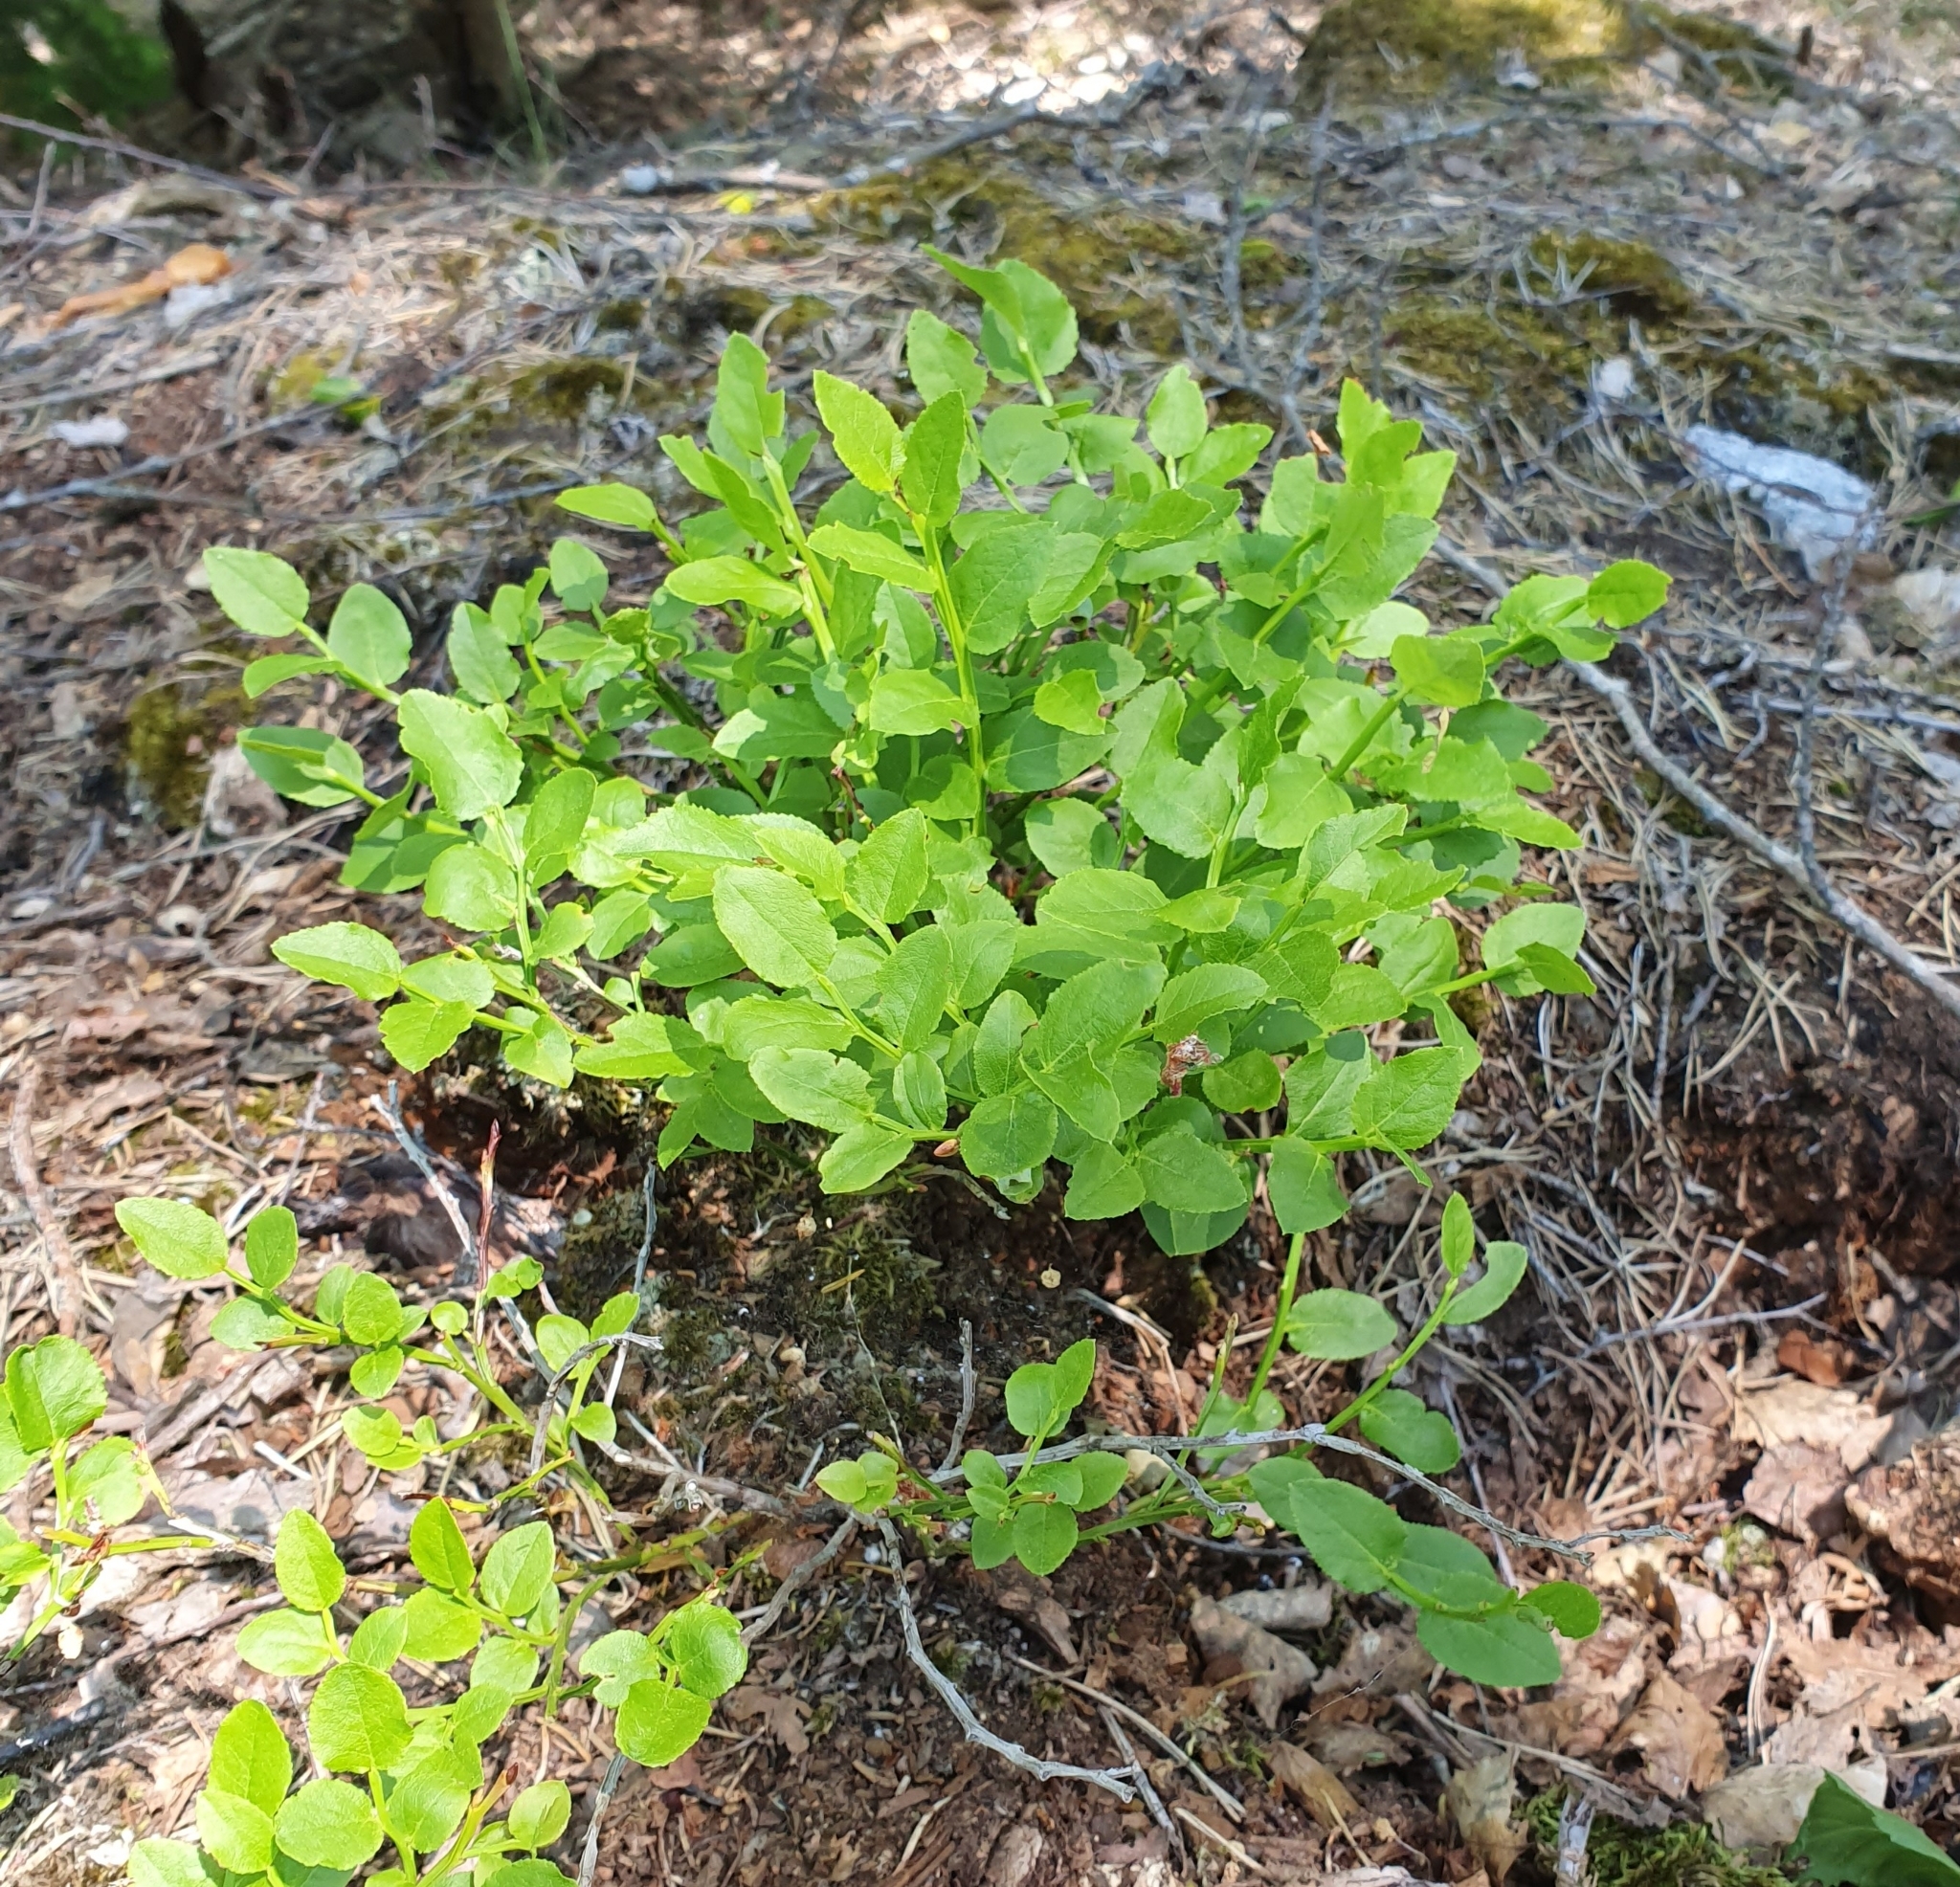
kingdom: Plantae
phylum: Tracheophyta
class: Magnoliopsida
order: Ericales
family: Ericaceae
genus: Vaccinium
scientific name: Vaccinium myrtillus
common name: Bilberry
